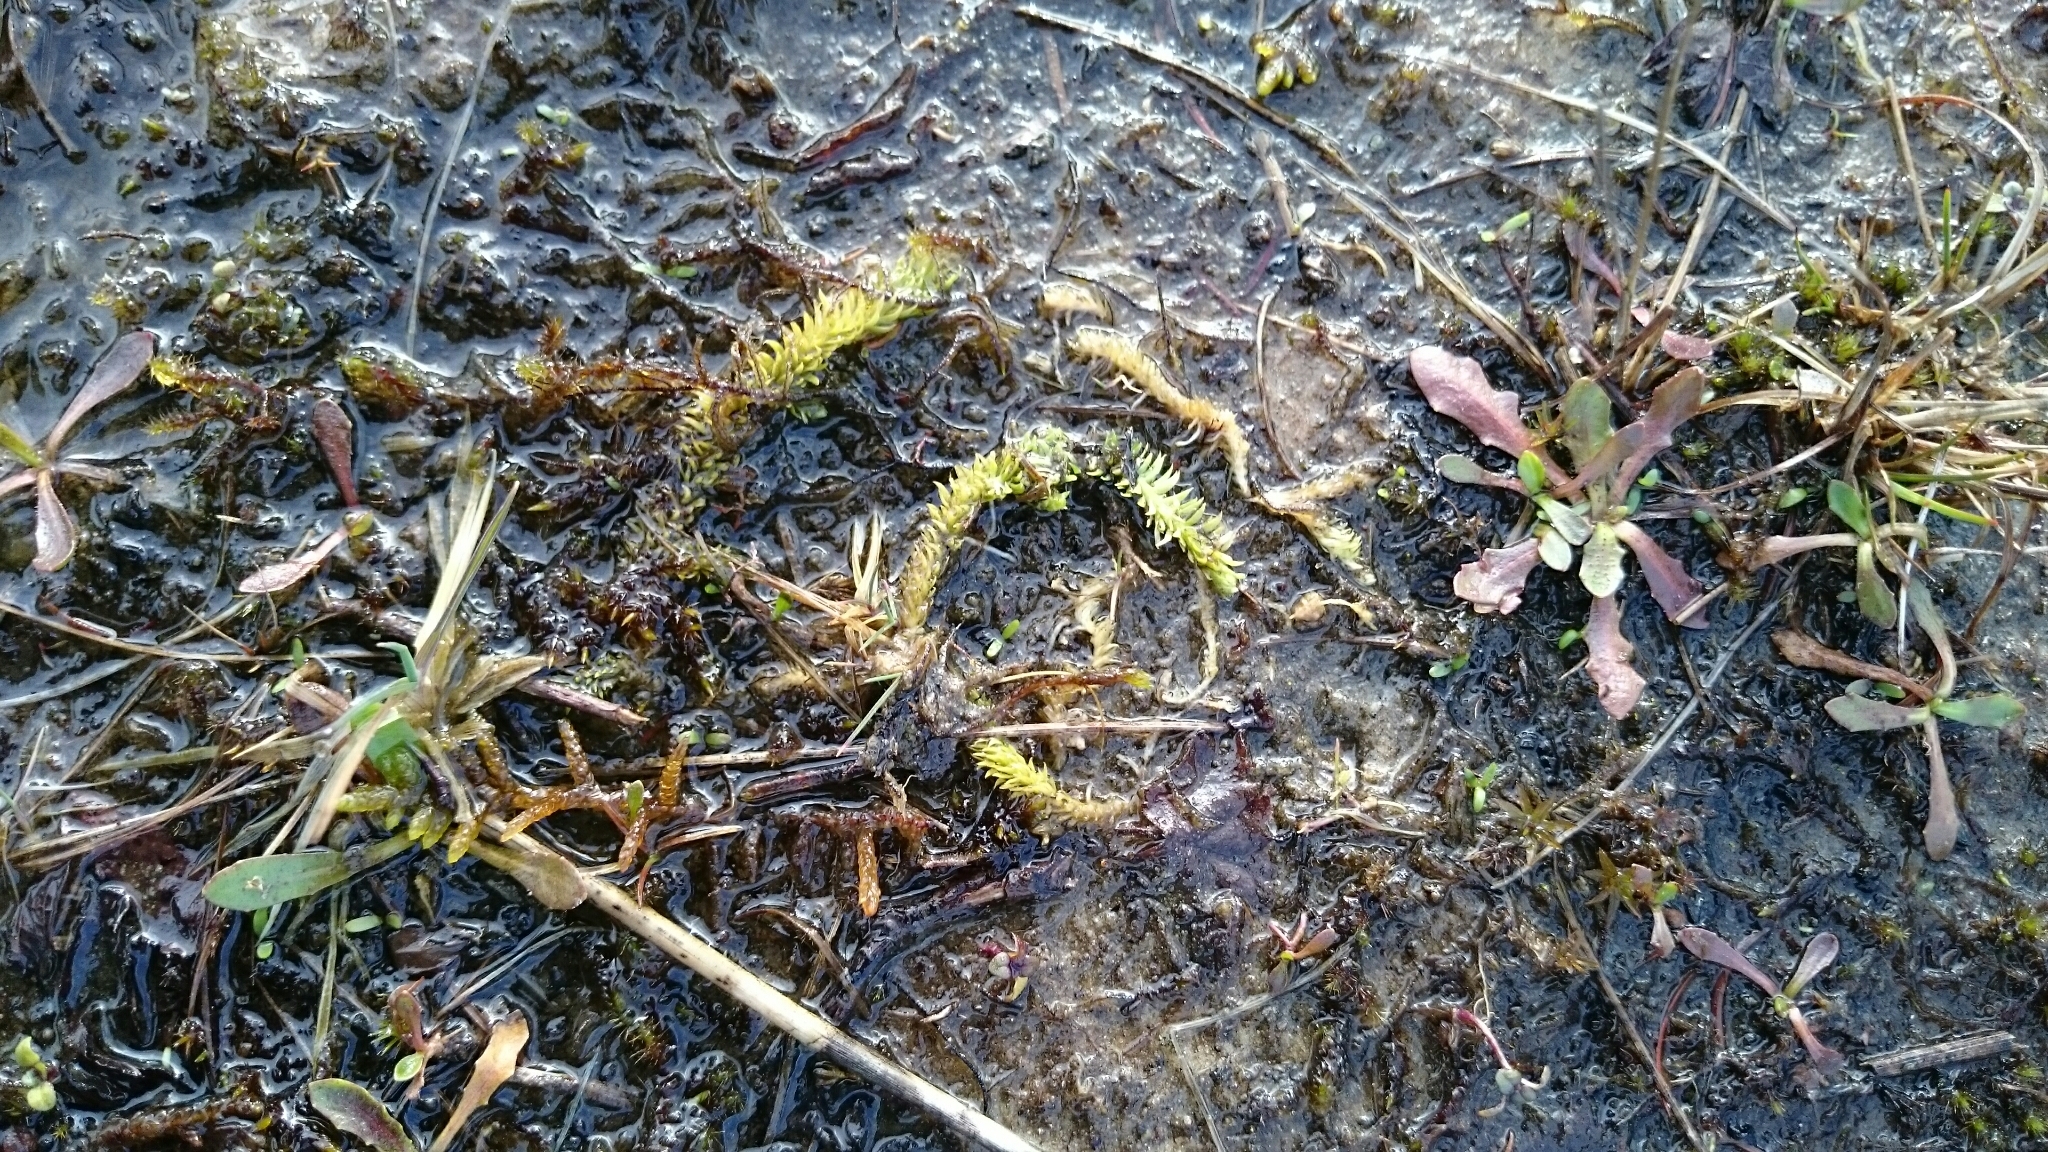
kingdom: Plantae
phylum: Tracheophyta
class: Lycopodiopsida
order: Lycopodiales
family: Lycopodiaceae
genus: Lycopodiella
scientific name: Lycopodiella inundata
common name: Marsh clubmoss
